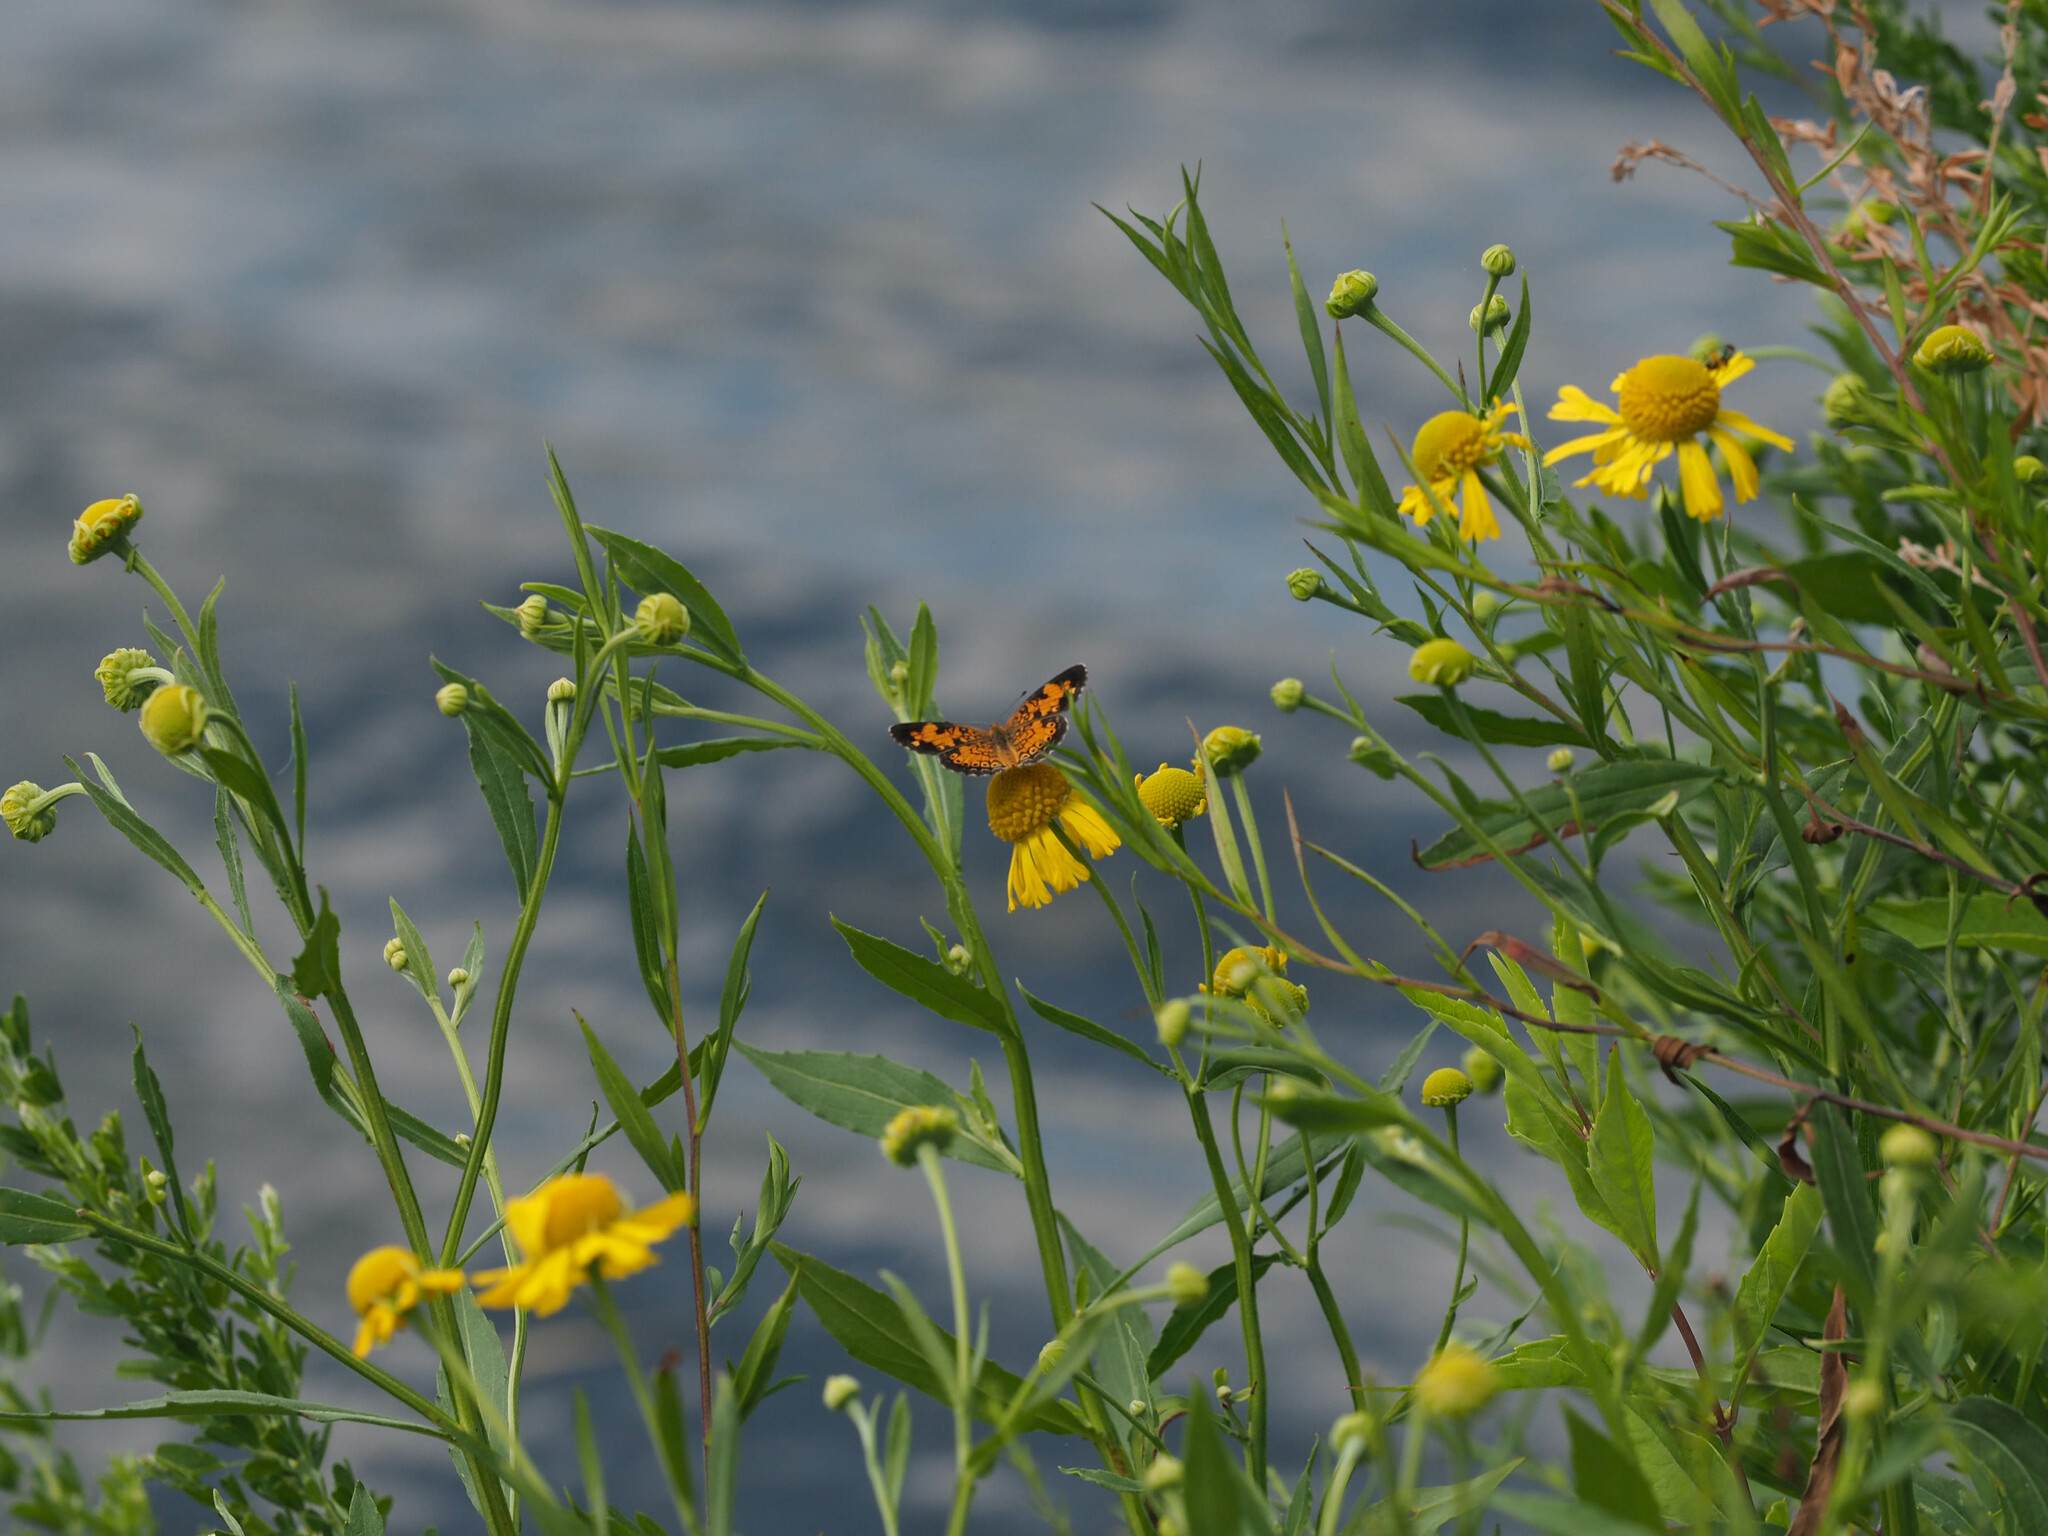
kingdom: Animalia
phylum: Arthropoda
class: Insecta
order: Lepidoptera
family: Nymphalidae
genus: Phyciodes
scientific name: Phyciodes tharos
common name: Pearl crescent
